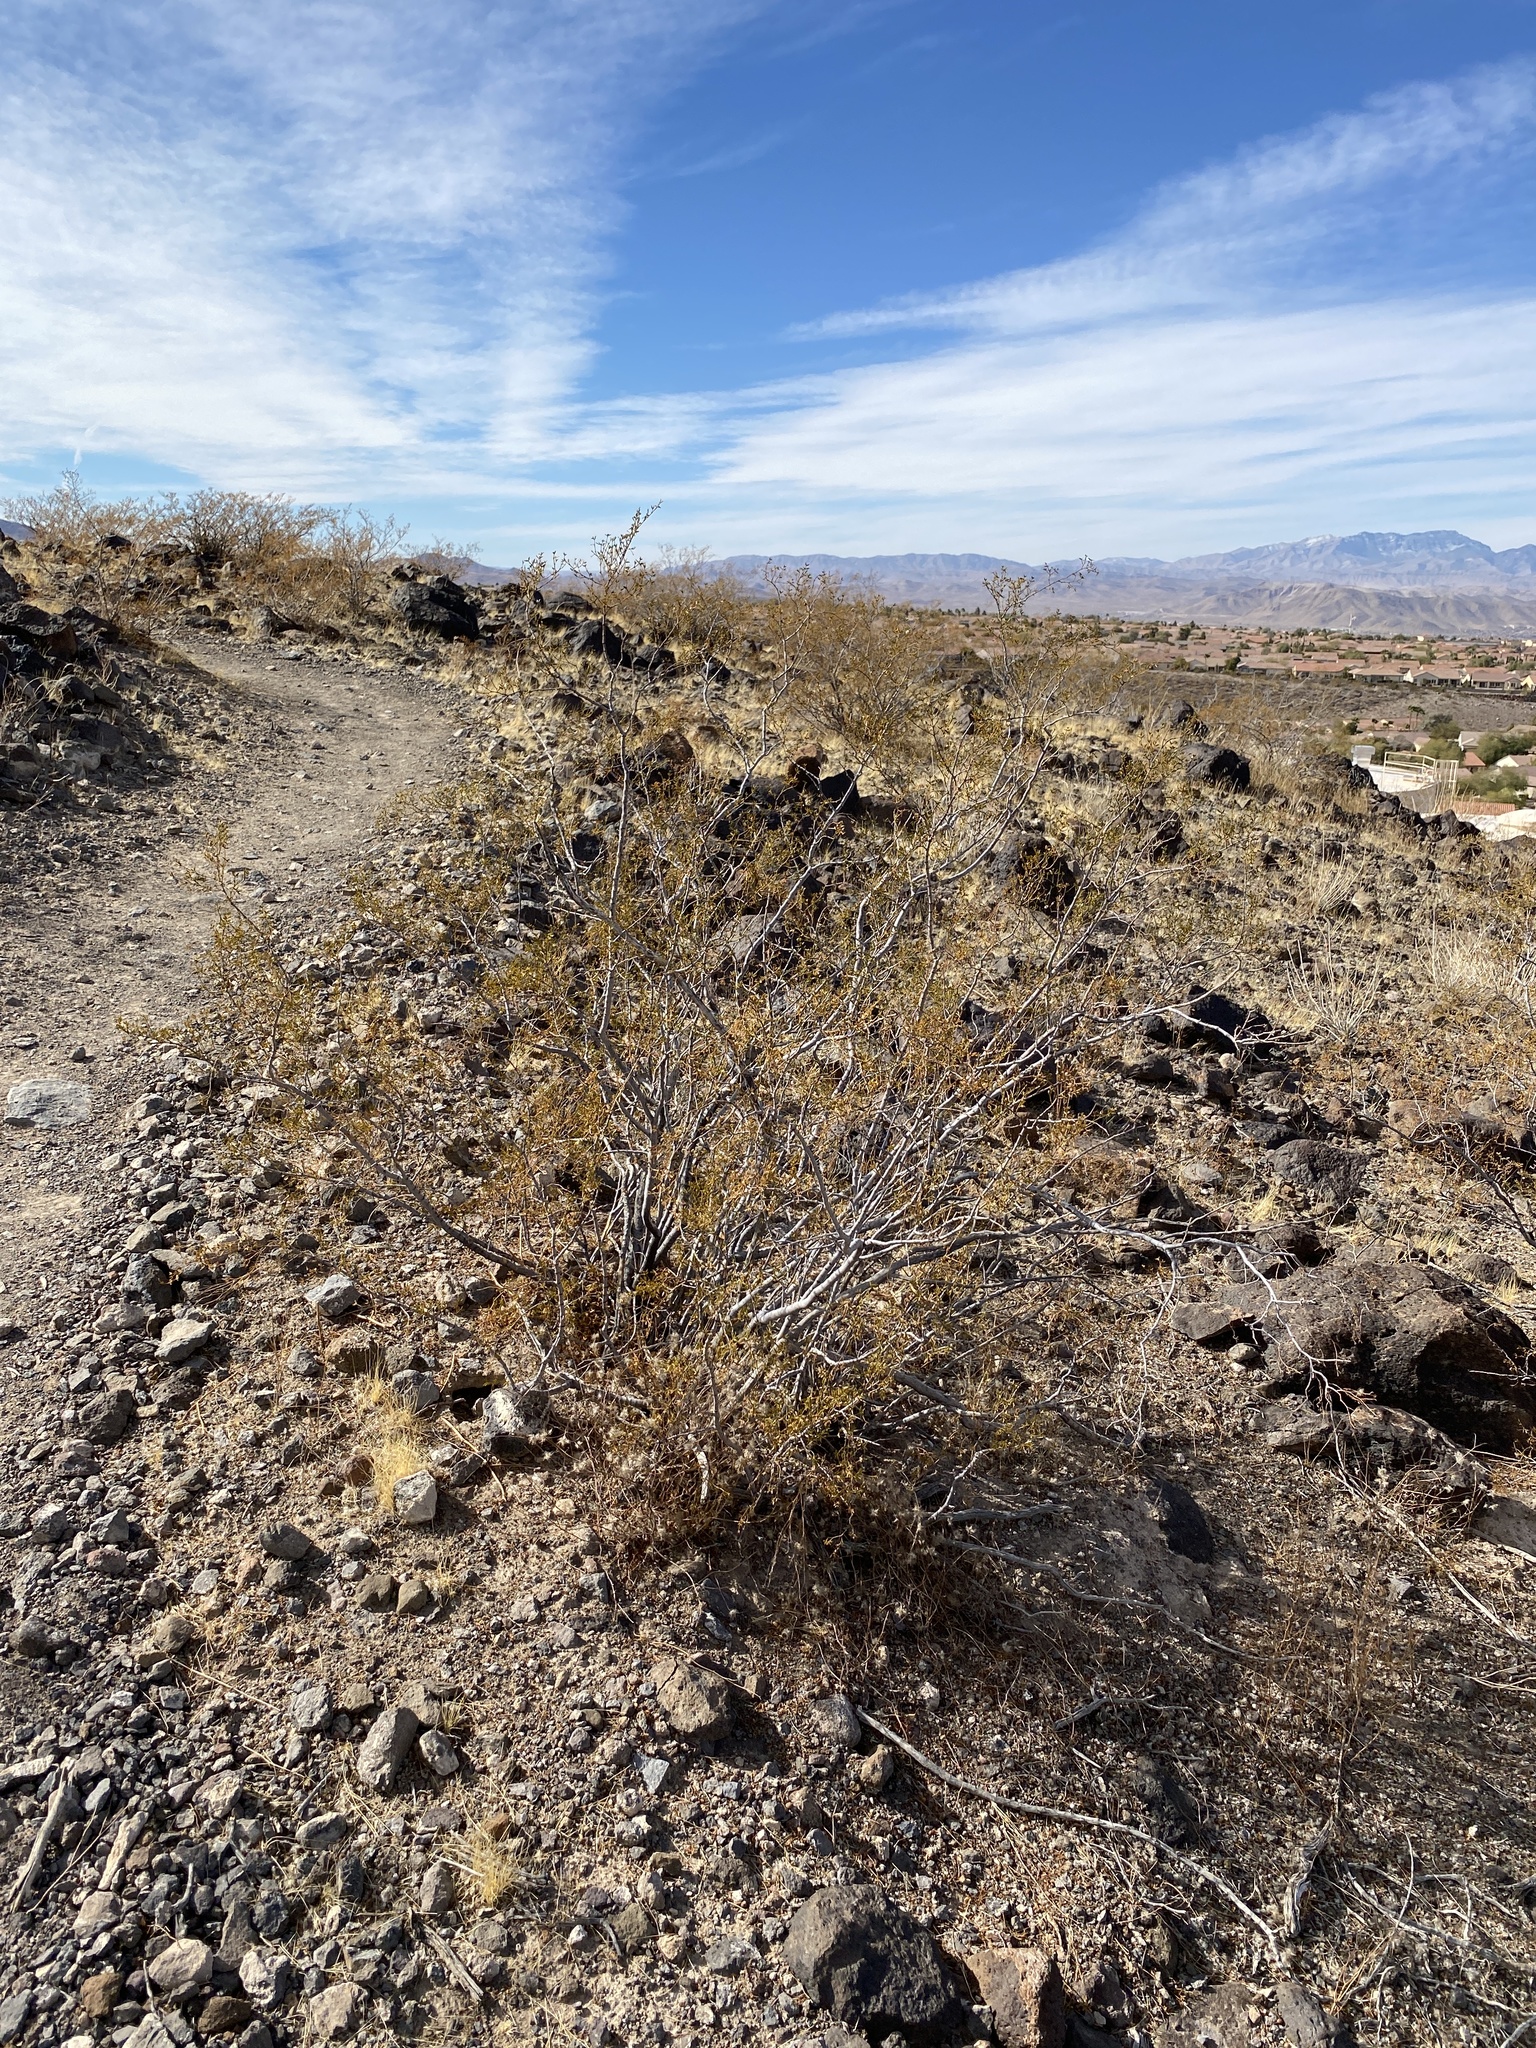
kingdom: Plantae
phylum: Tracheophyta
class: Magnoliopsida
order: Zygophyllales
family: Zygophyllaceae
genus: Larrea
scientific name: Larrea tridentata
